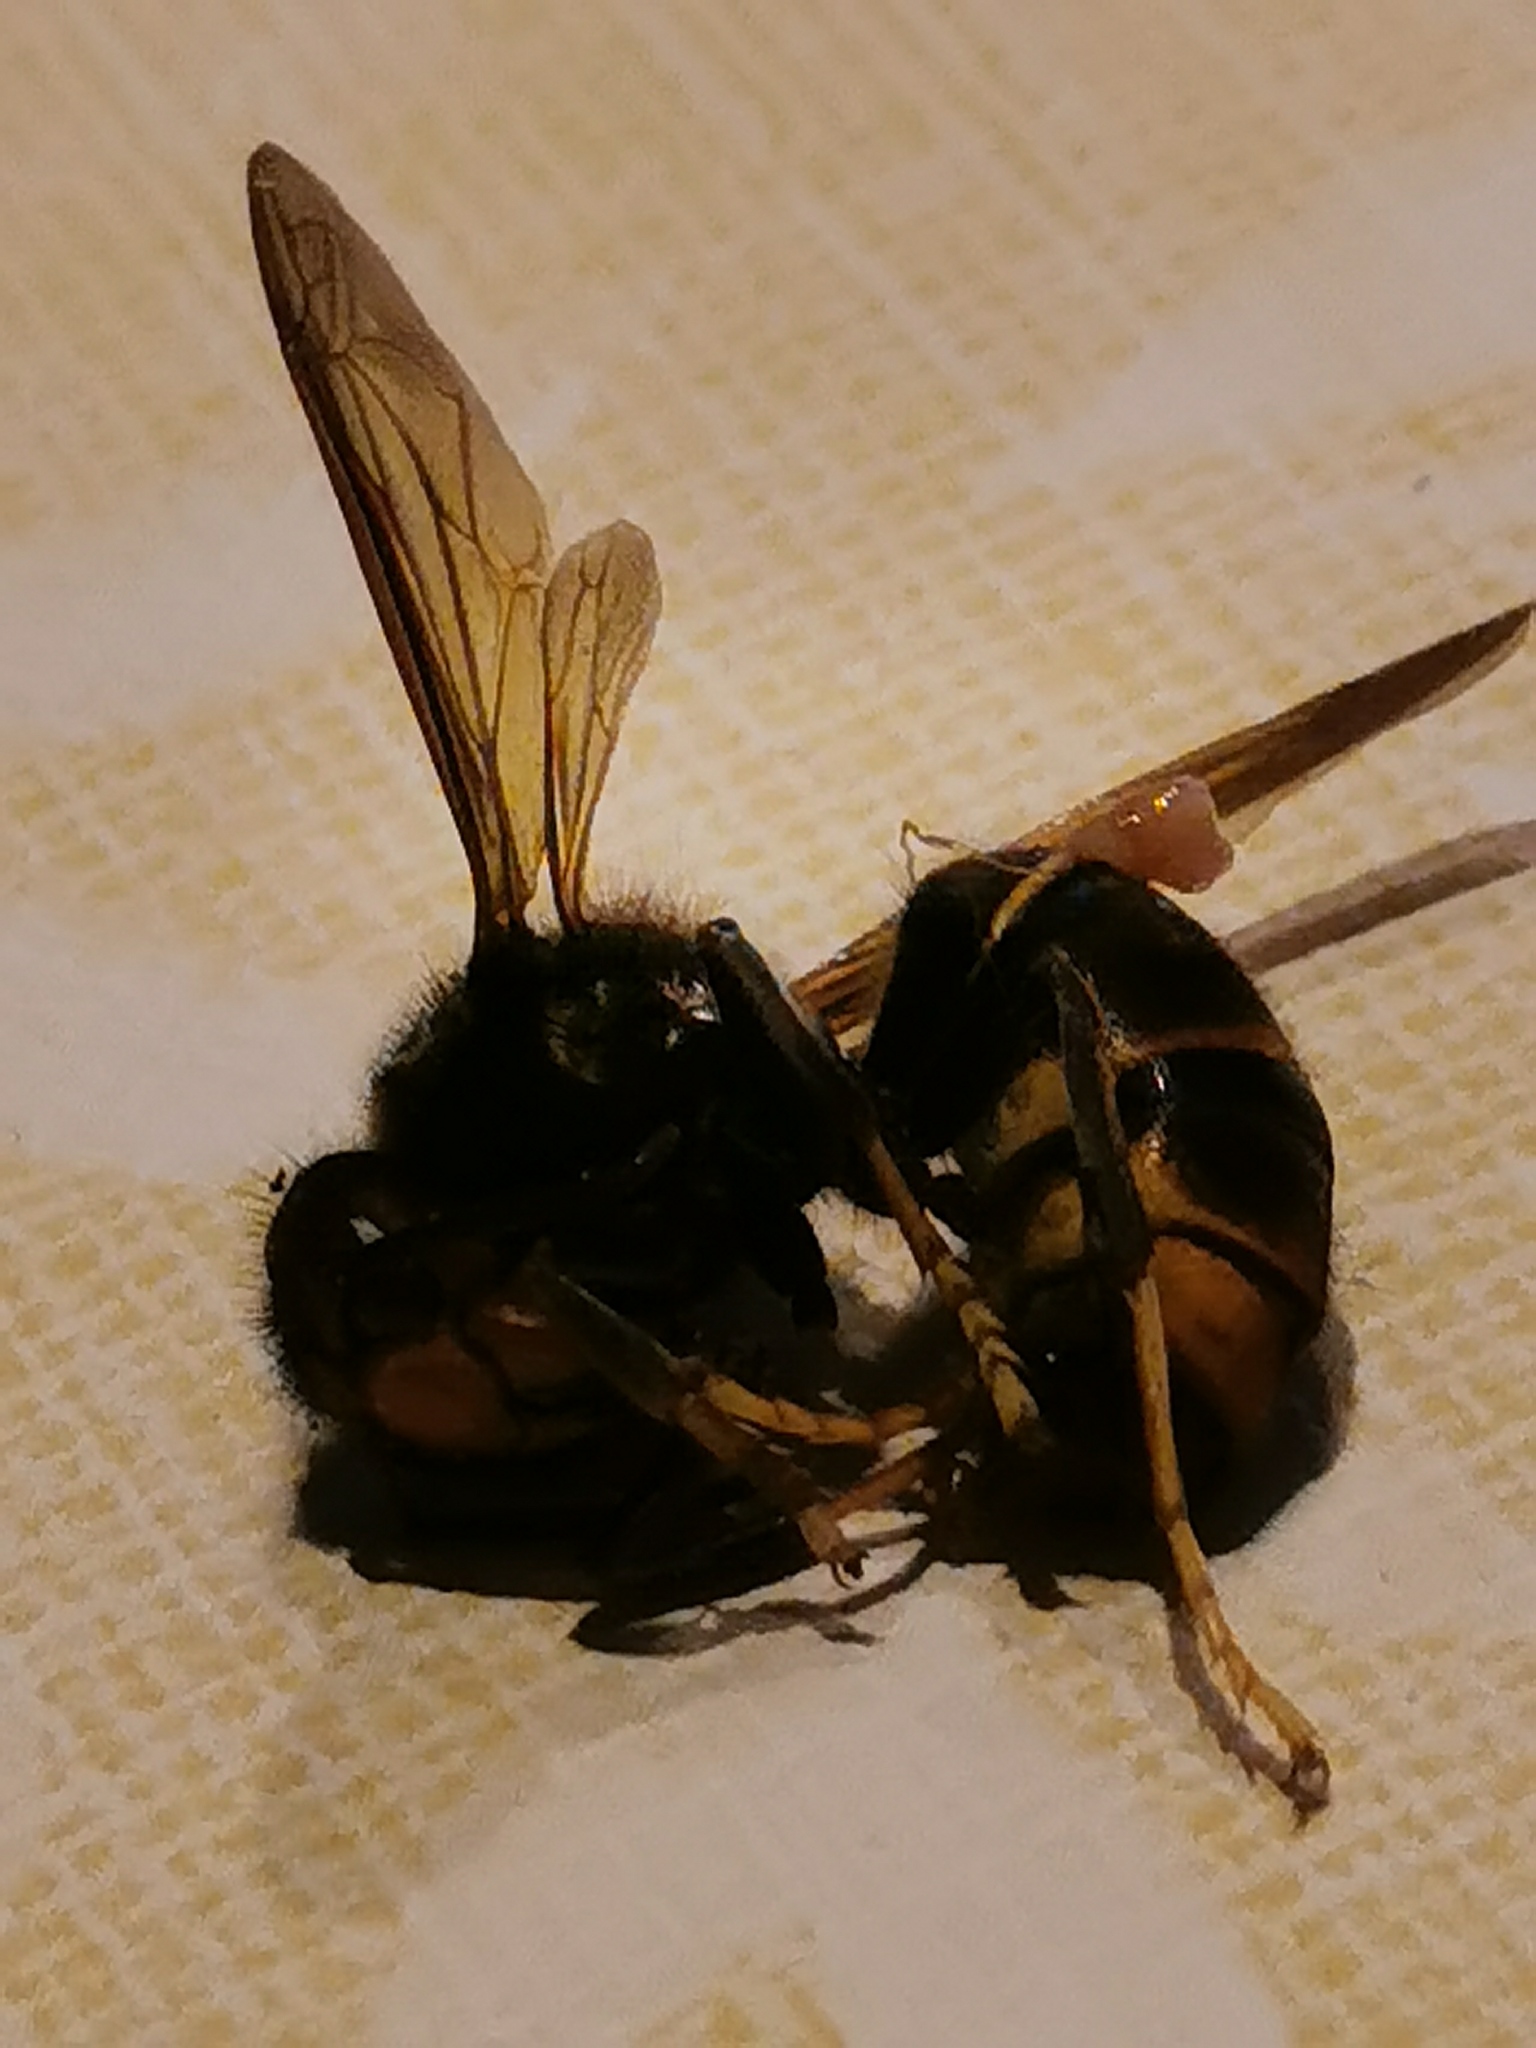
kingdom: Animalia
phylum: Arthropoda
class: Insecta
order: Hymenoptera
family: Vespidae
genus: Vespa
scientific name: Vespa velutina
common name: Asian hornet
